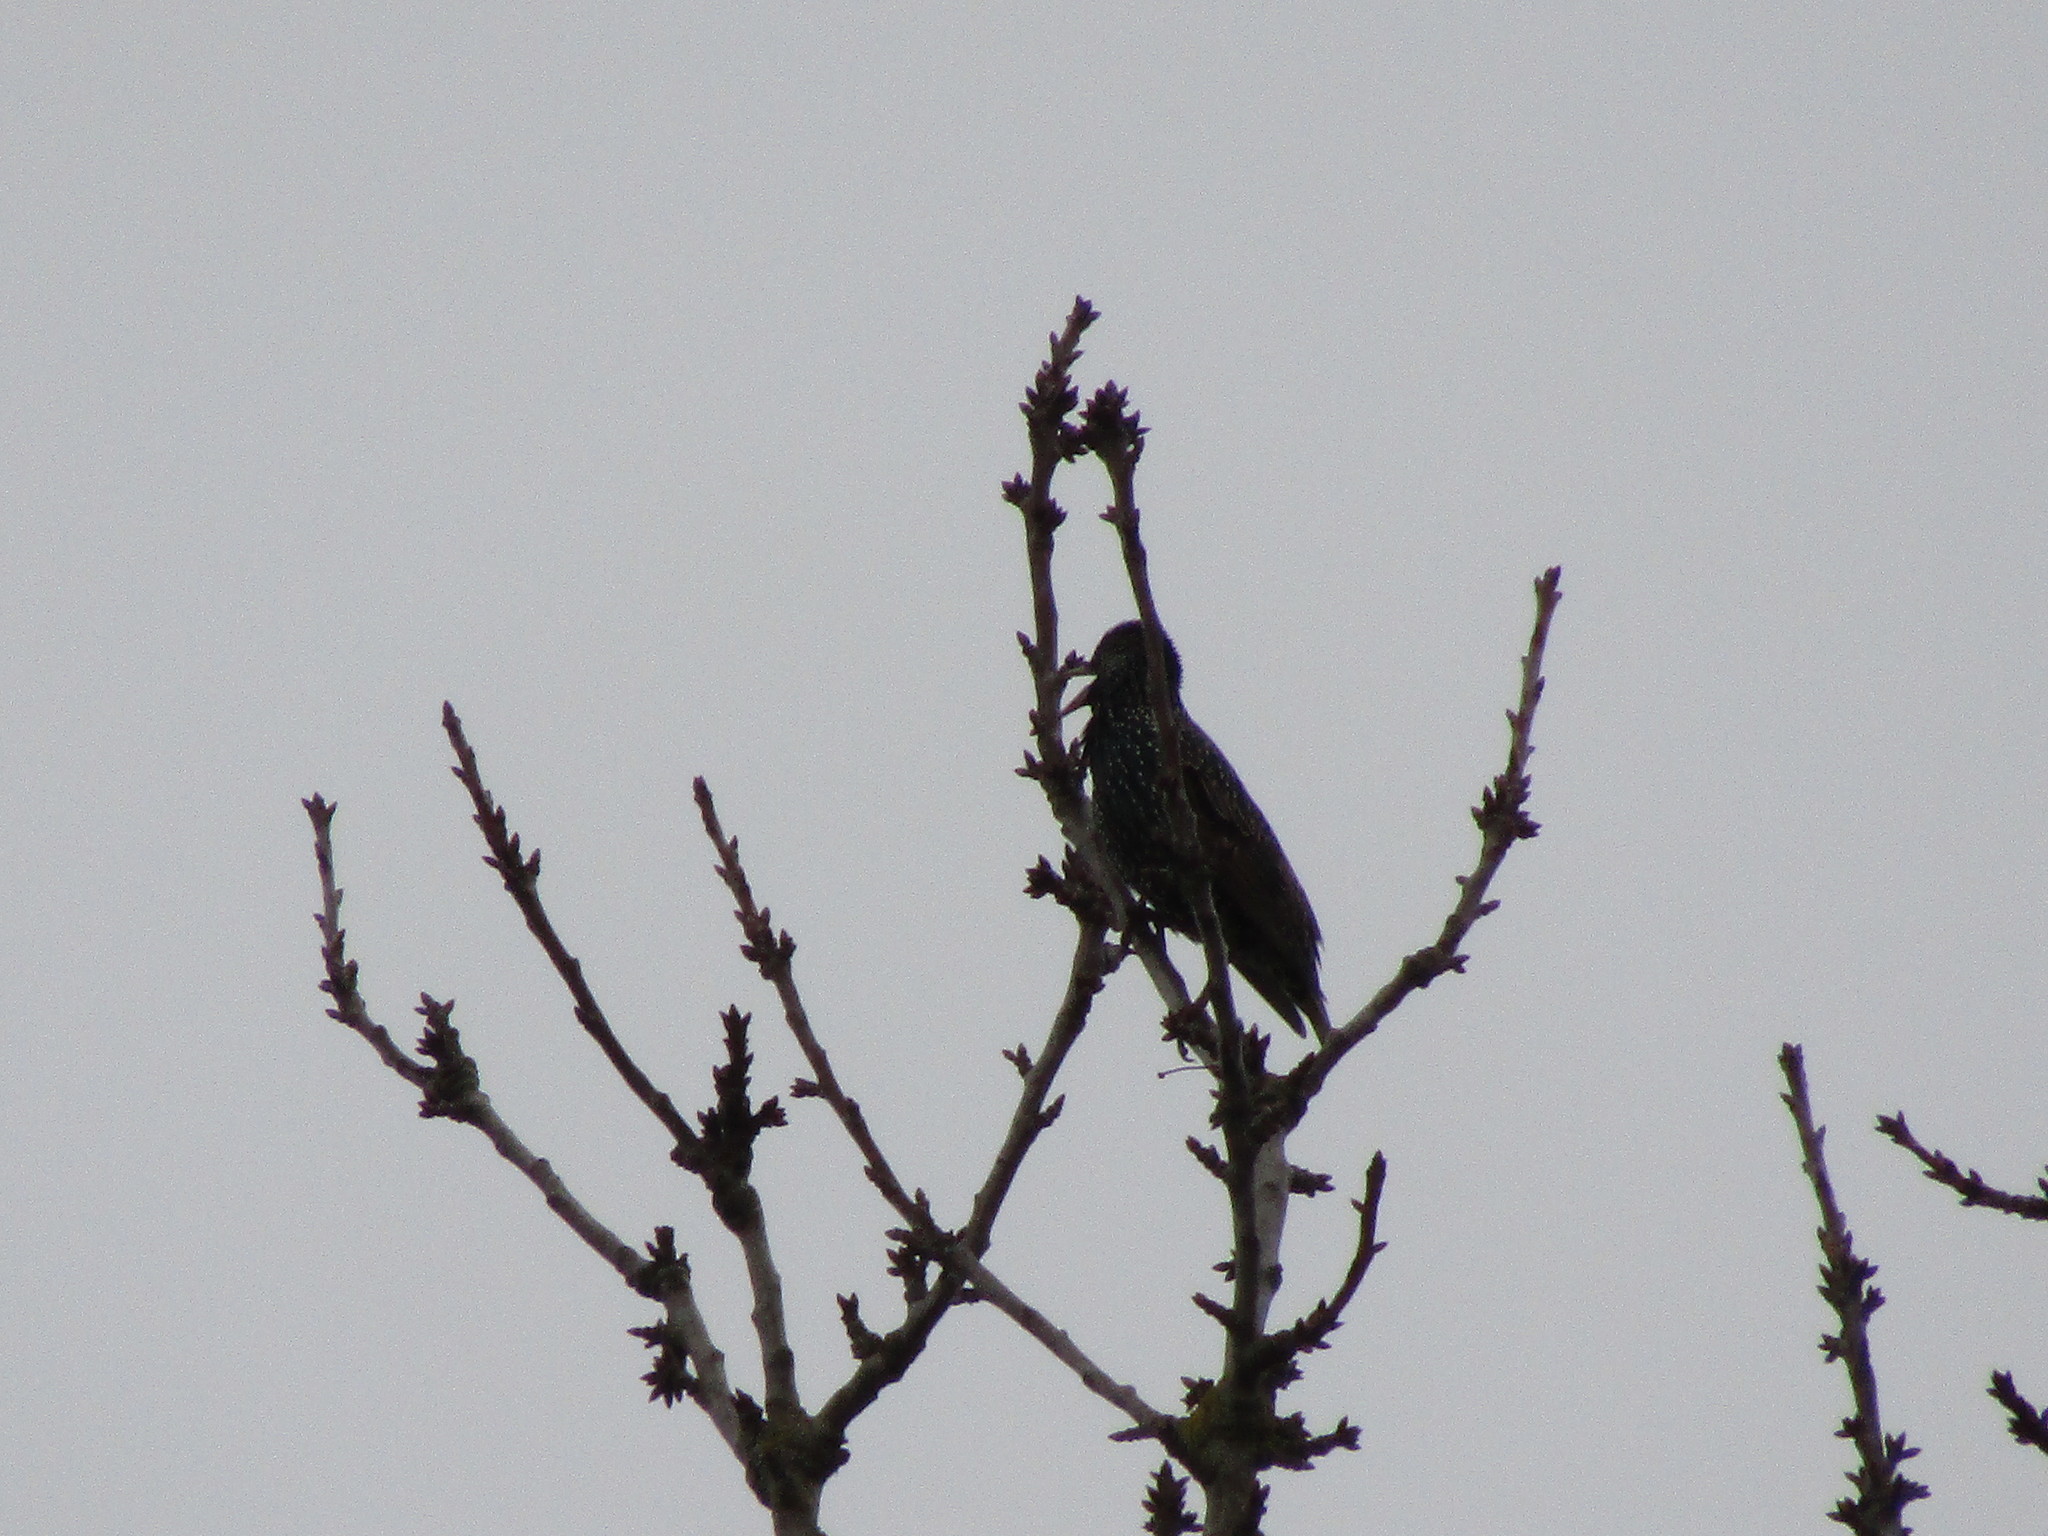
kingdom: Animalia
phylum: Chordata
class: Aves
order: Passeriformes
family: Sturnidae
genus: Sturnus
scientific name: Sturnus vulgaris
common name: Common starling
